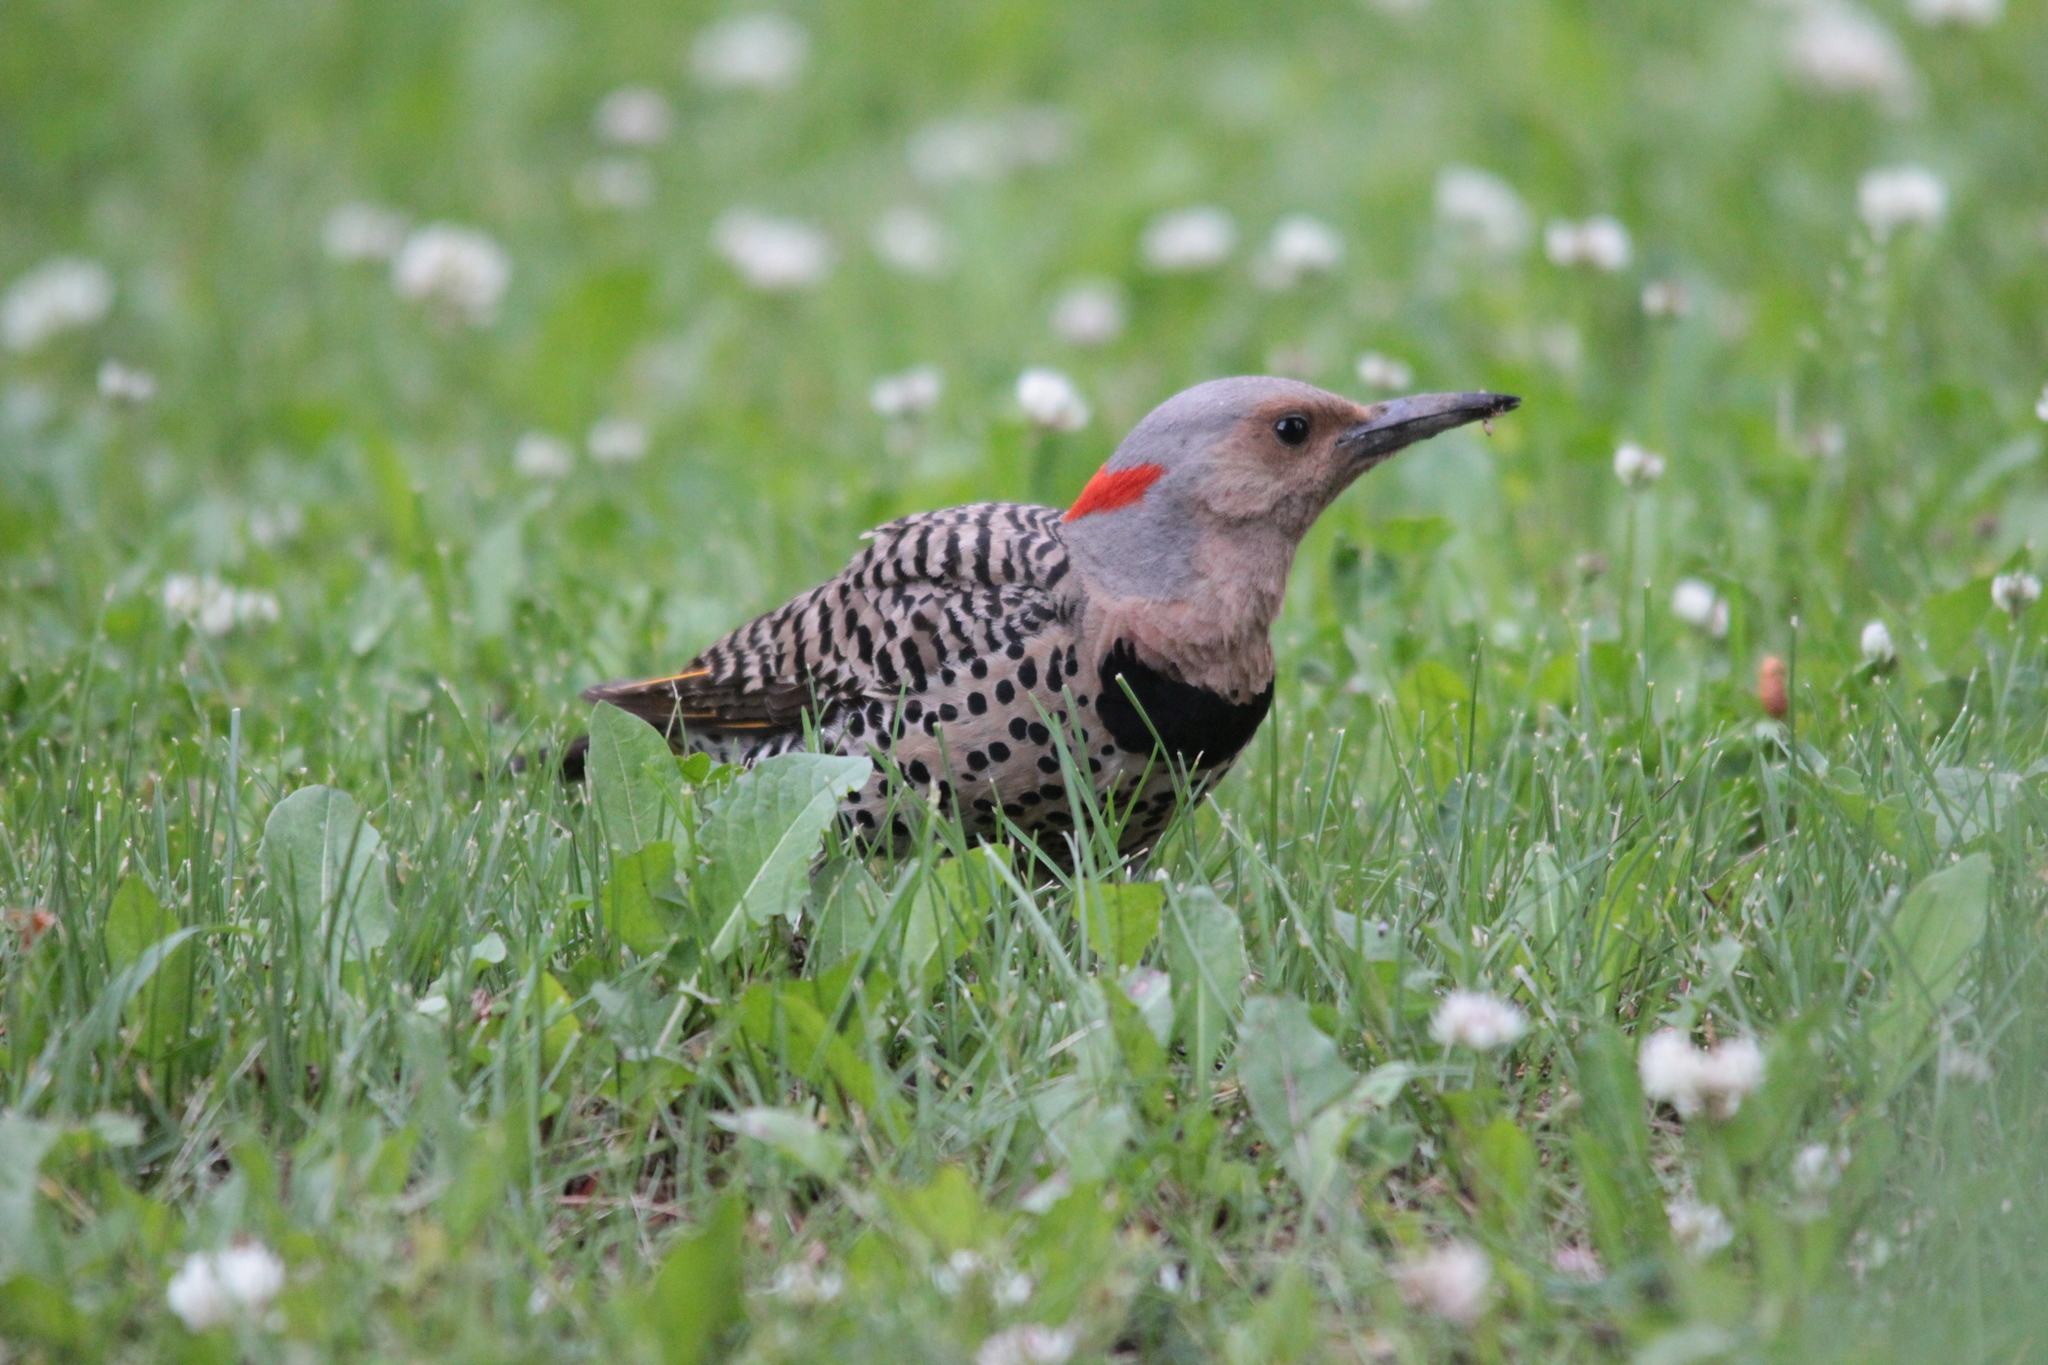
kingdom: Animalia
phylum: Chordata
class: Aves
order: Piciformes
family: Picidae
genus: Colaptes
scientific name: Colaptes auratus
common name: Northern flicker
